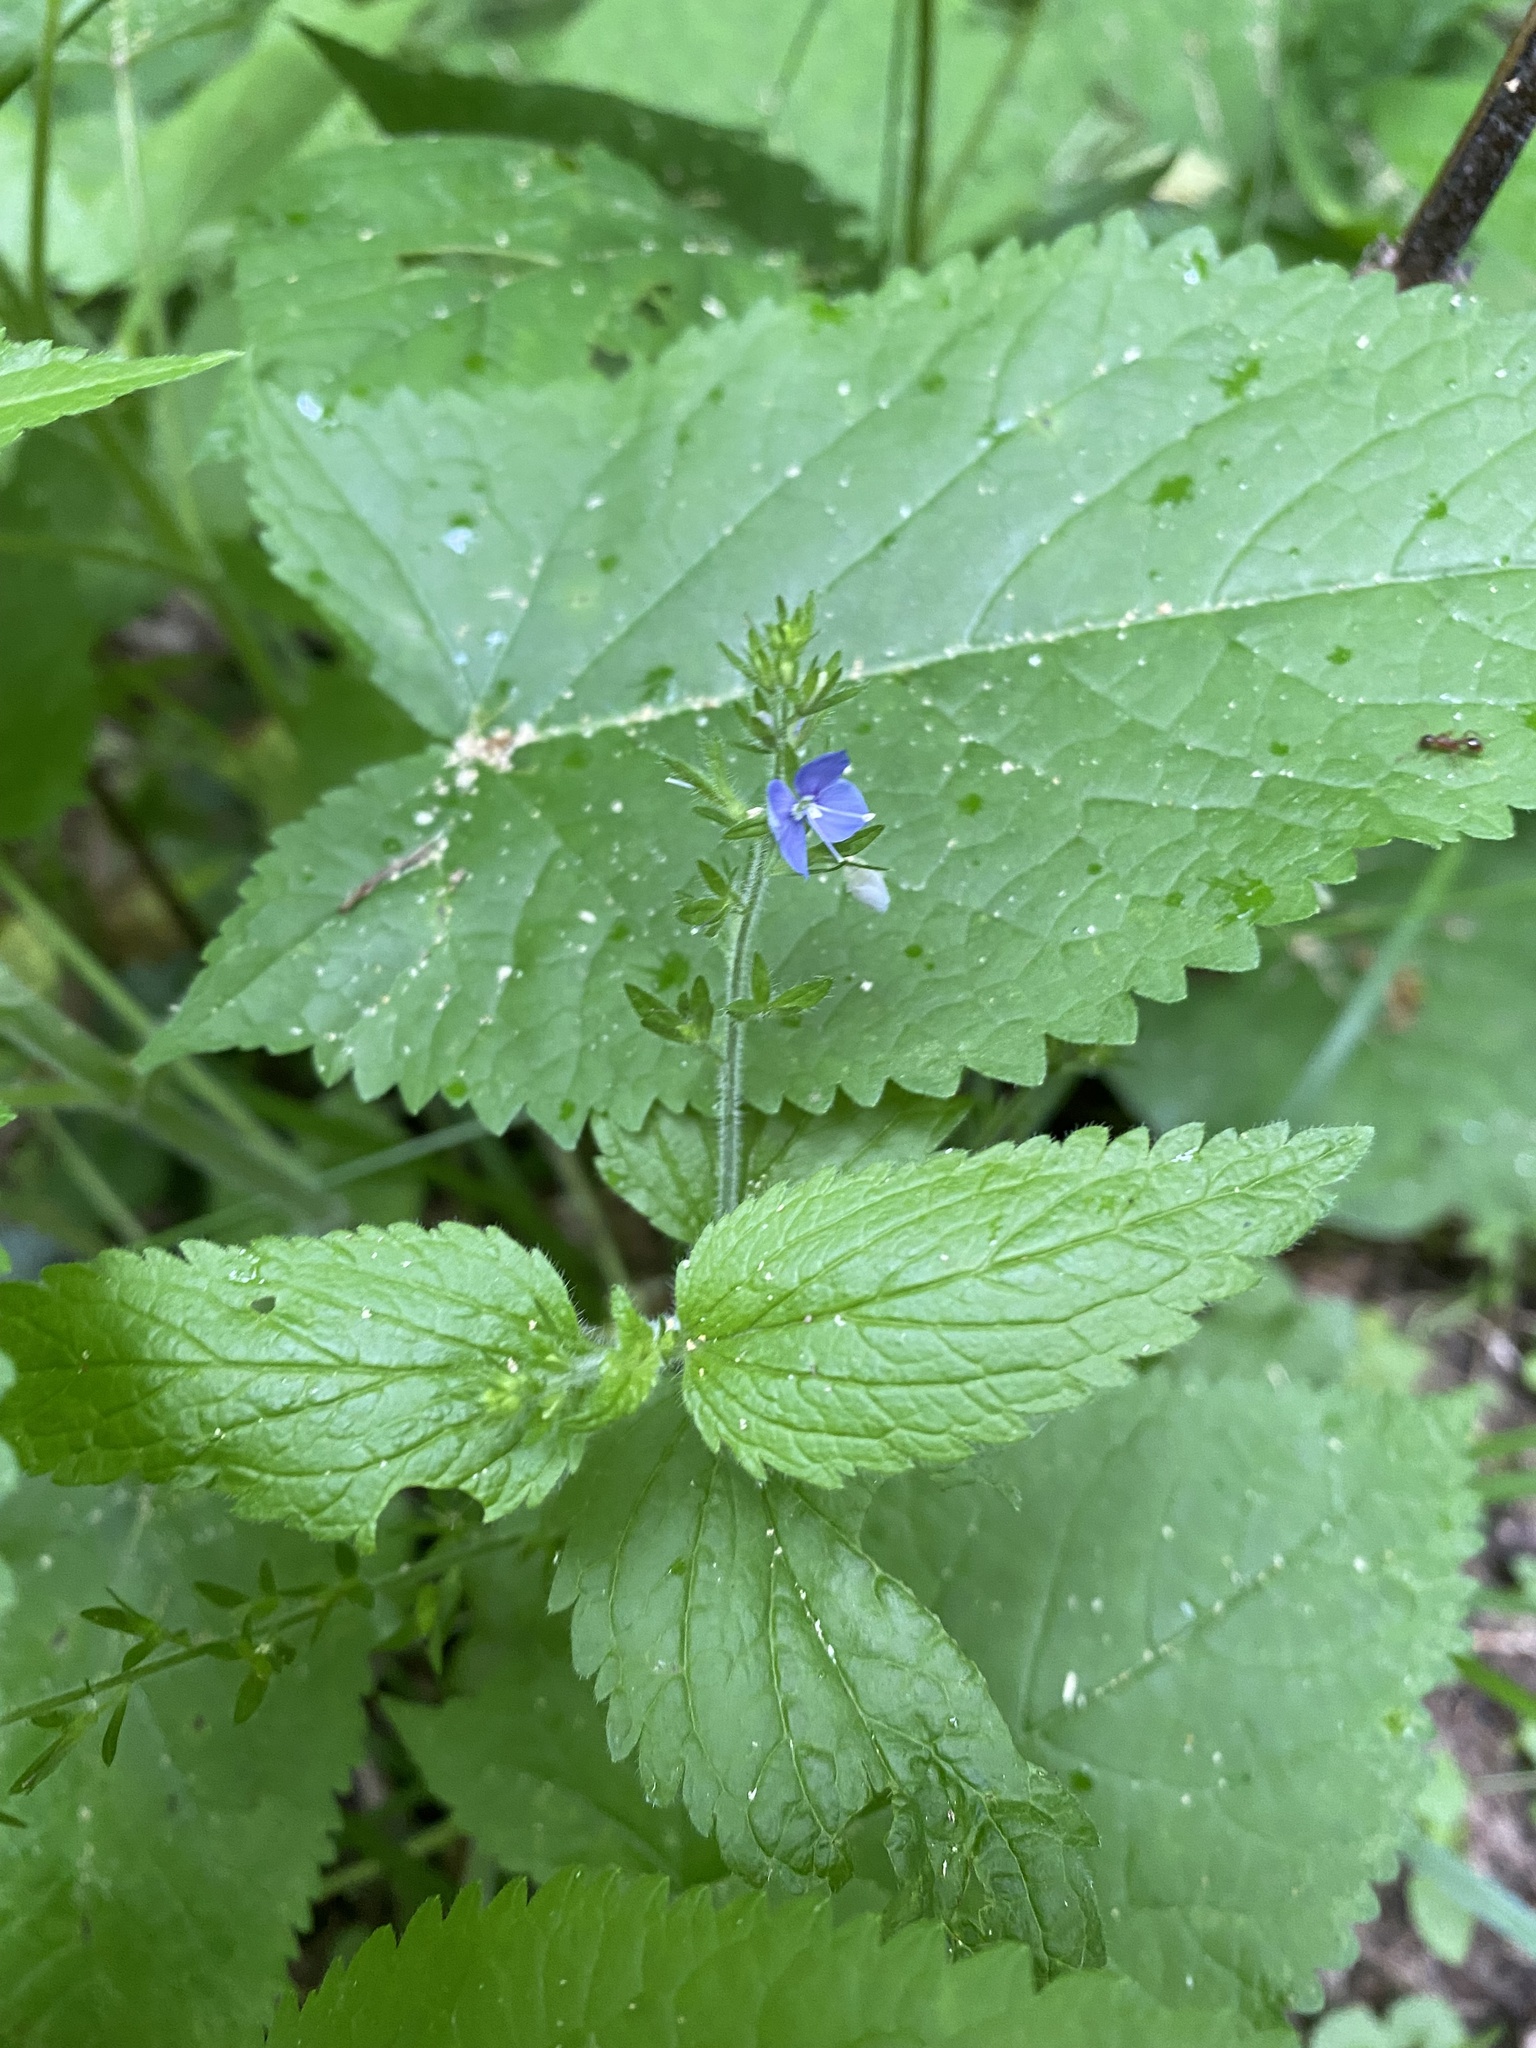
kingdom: Plantae
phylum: Tracheophyta
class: Magnoliopsida
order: Lamiales
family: Plantaginaceae
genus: Veronica
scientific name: Veronica magna
